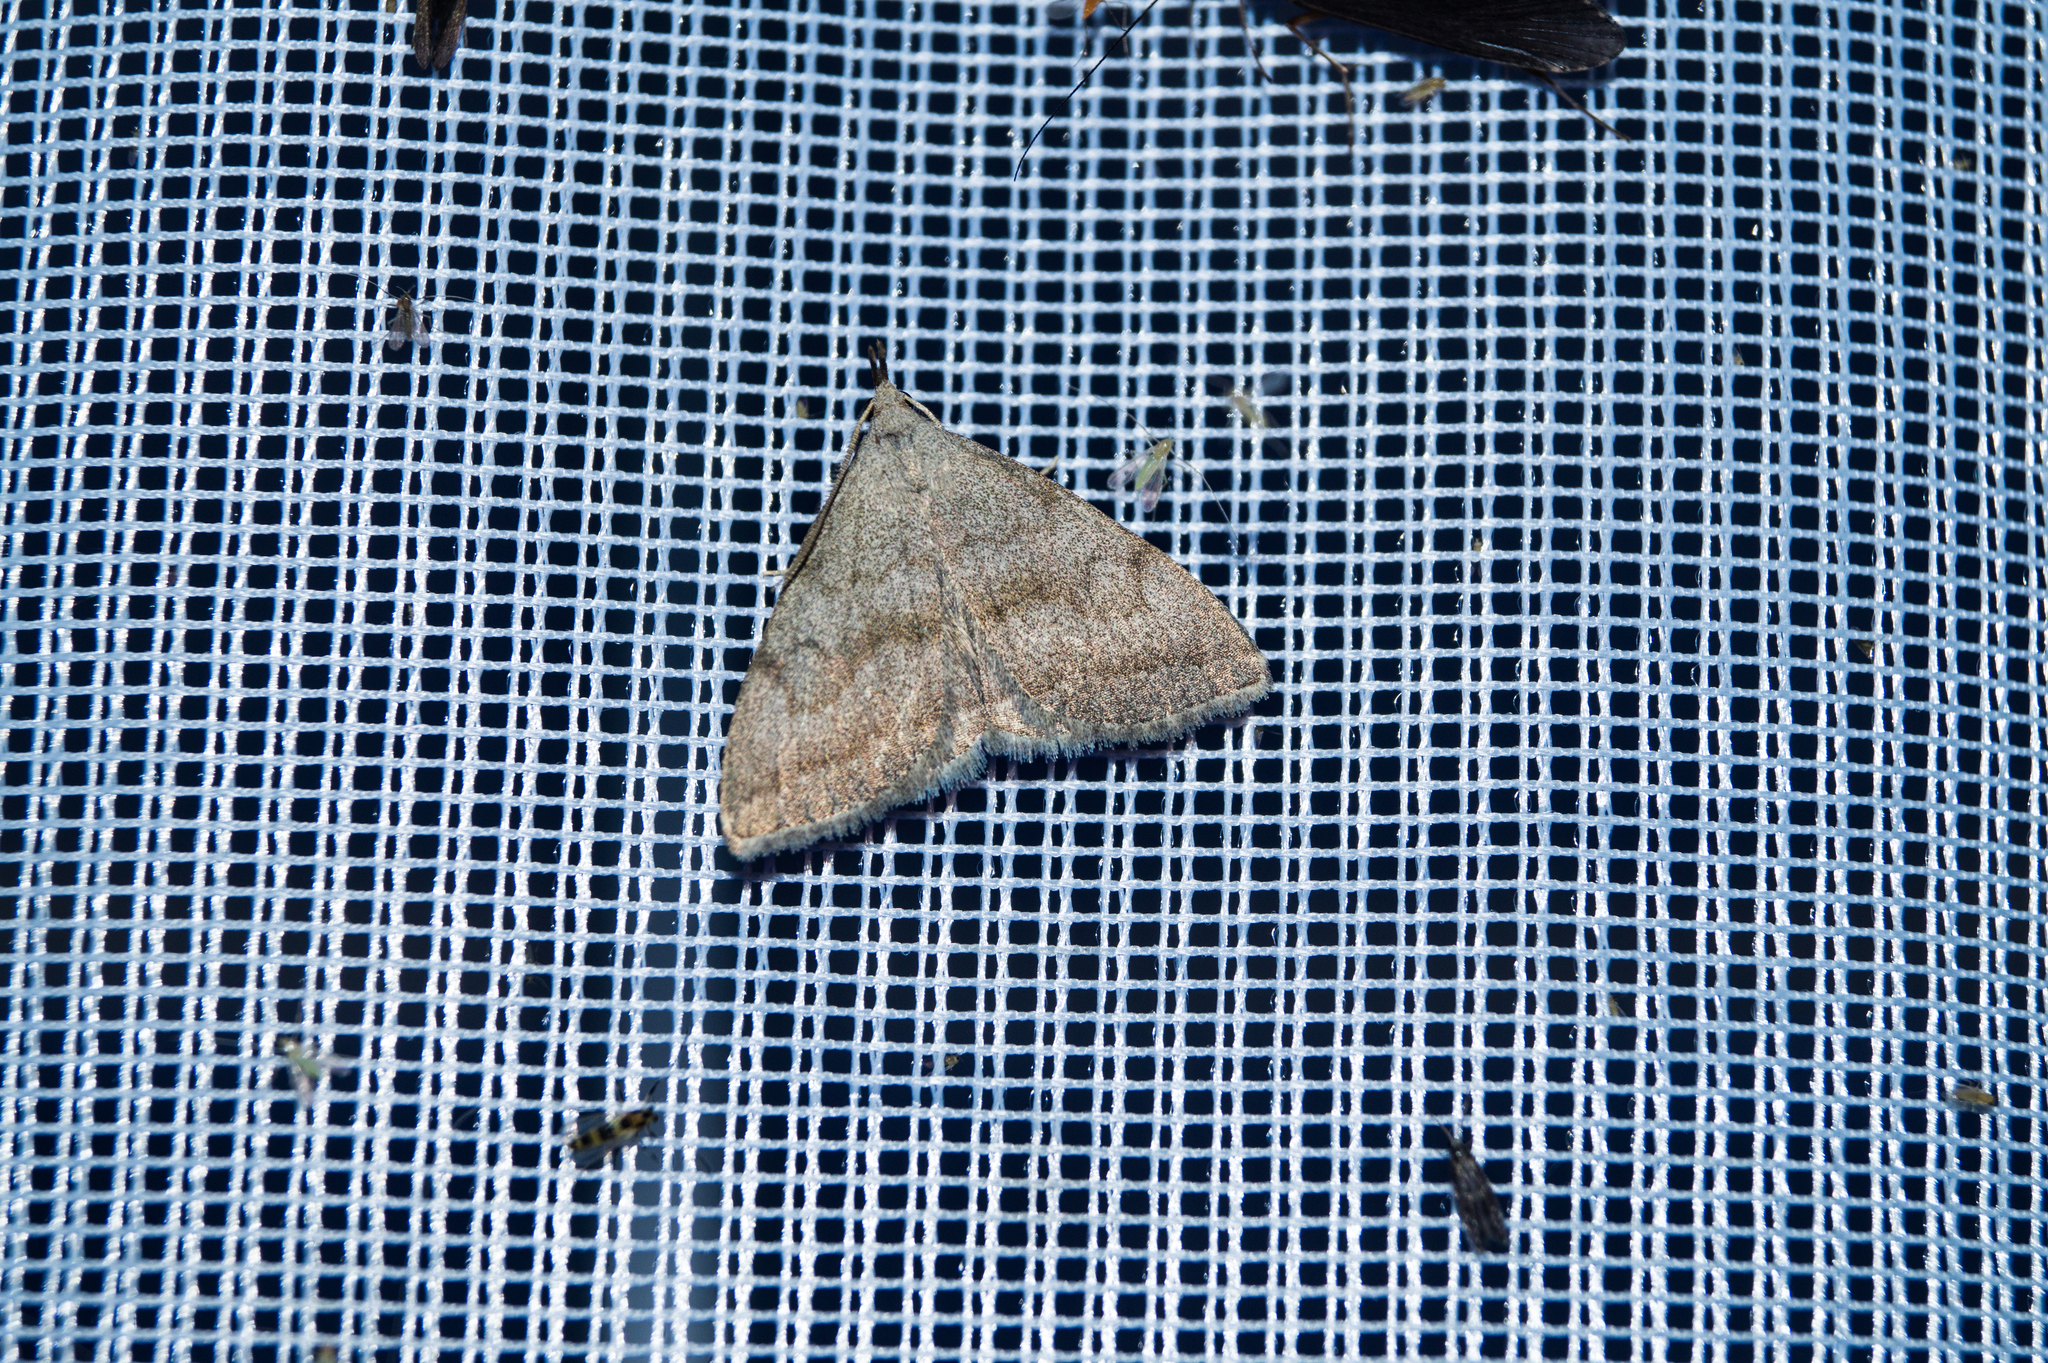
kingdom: Animalia
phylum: Arthropoda
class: Insecta
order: Lepidoptera
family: Erebidae
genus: Pechipogo
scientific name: Pechipogo strigilata
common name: Common fan-foot
